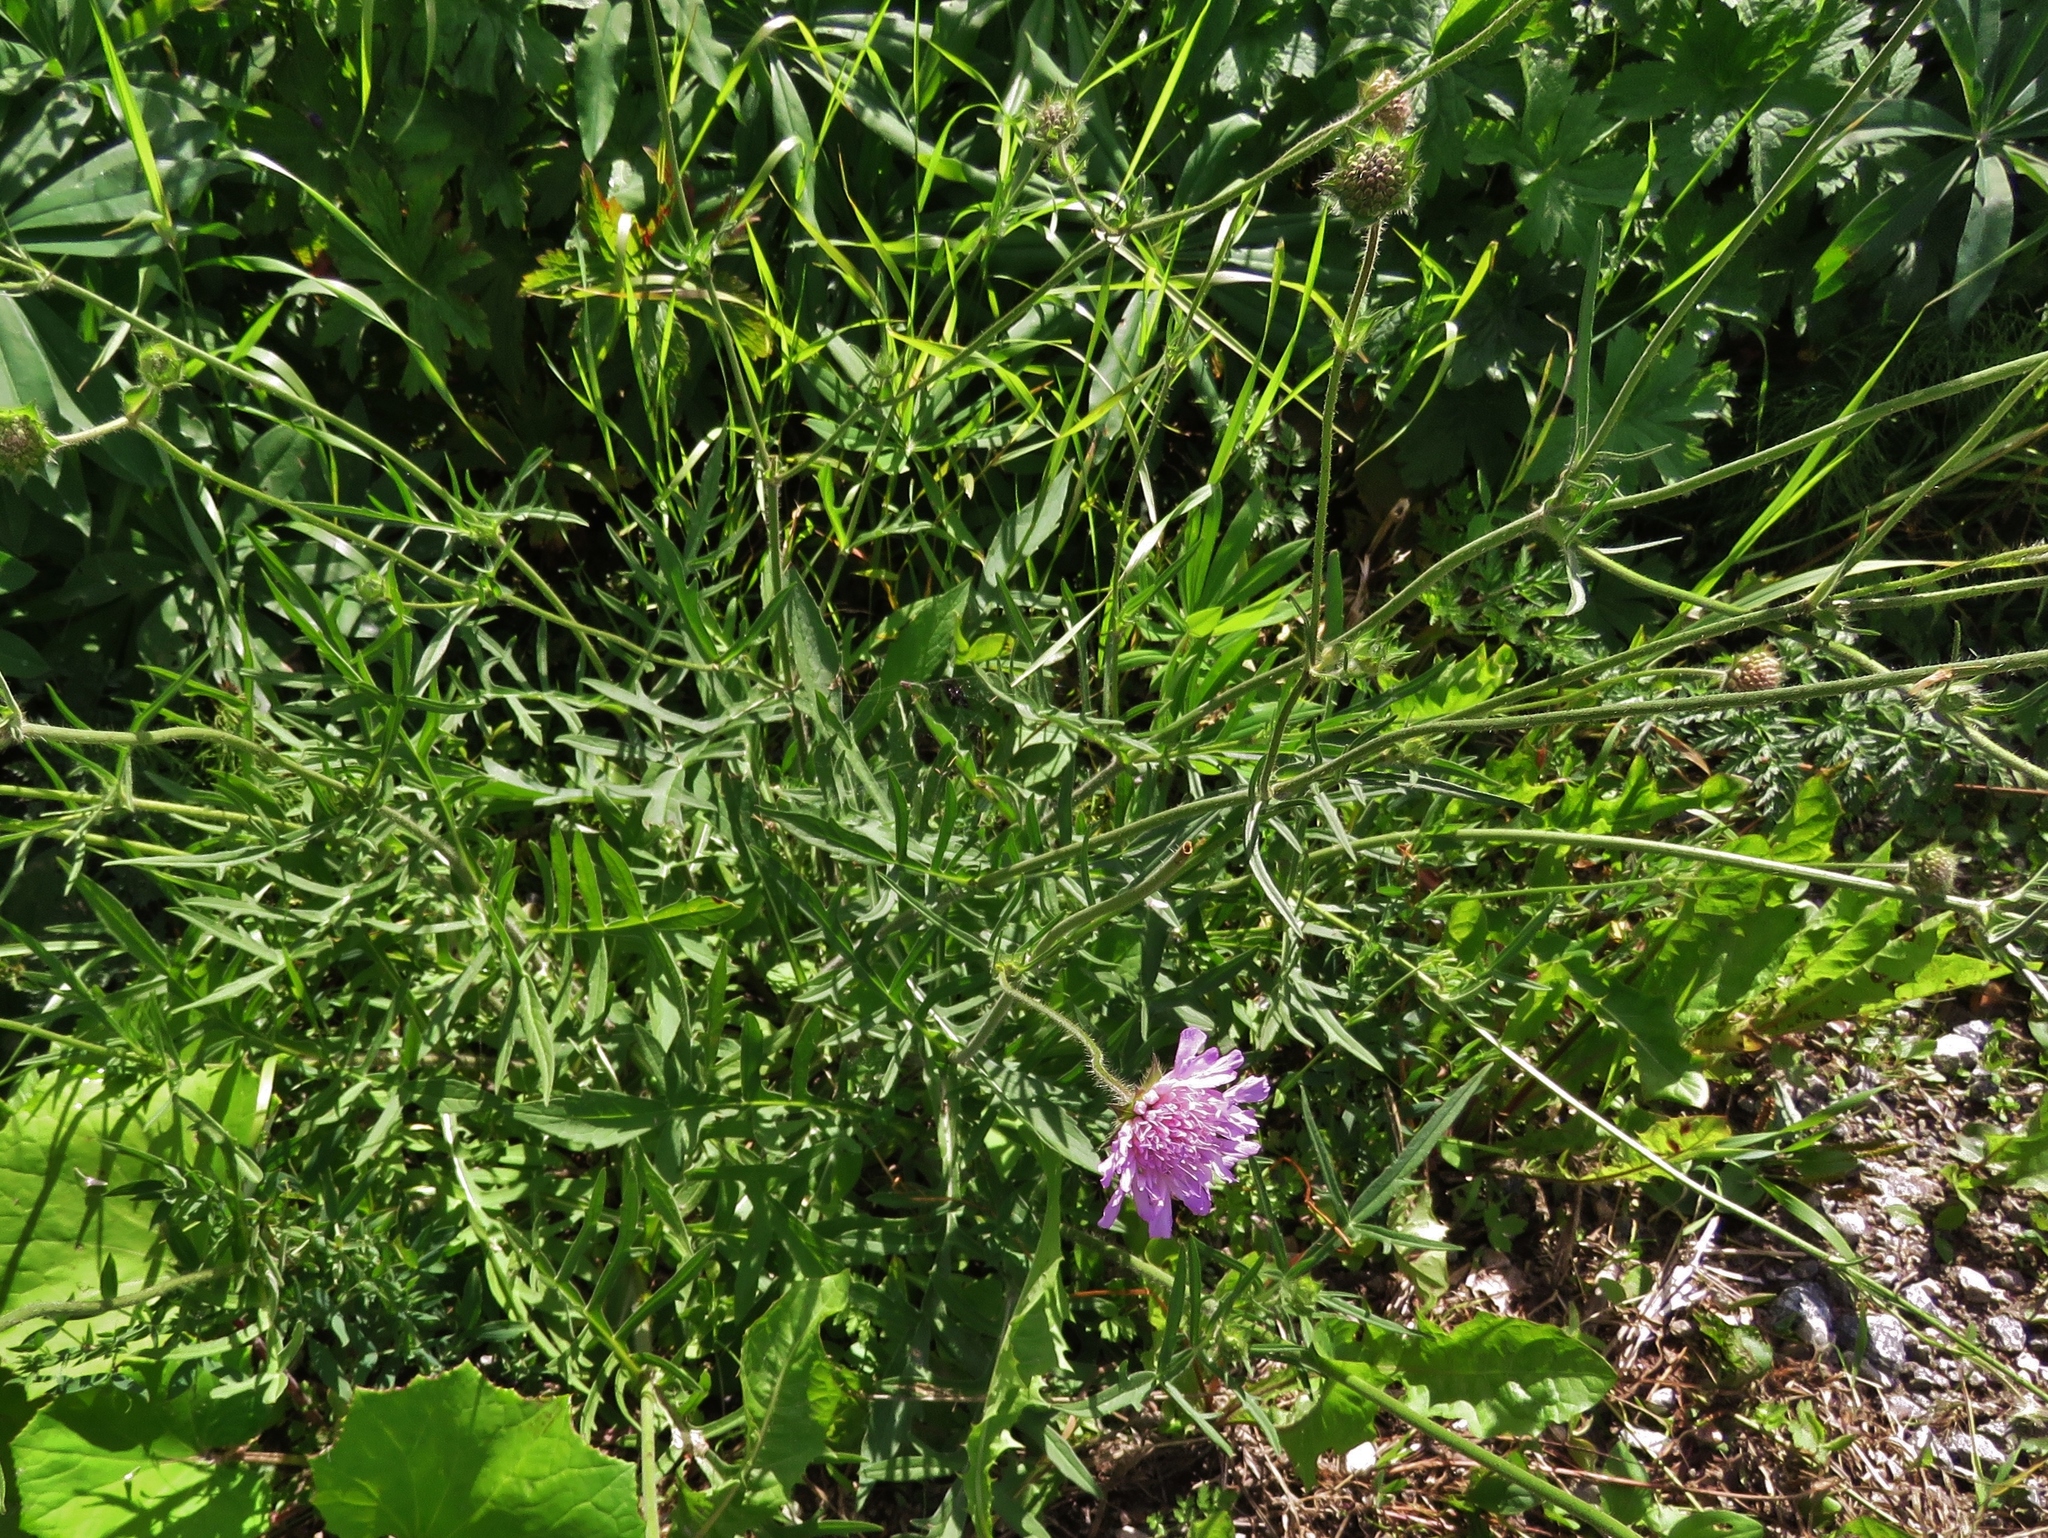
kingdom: Plantae
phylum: Tracheophyta
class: Magnoliopsida
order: Dipsacales
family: Caprifoliaceae
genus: Knautia
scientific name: Knautia arvensis
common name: Field scabiosa
